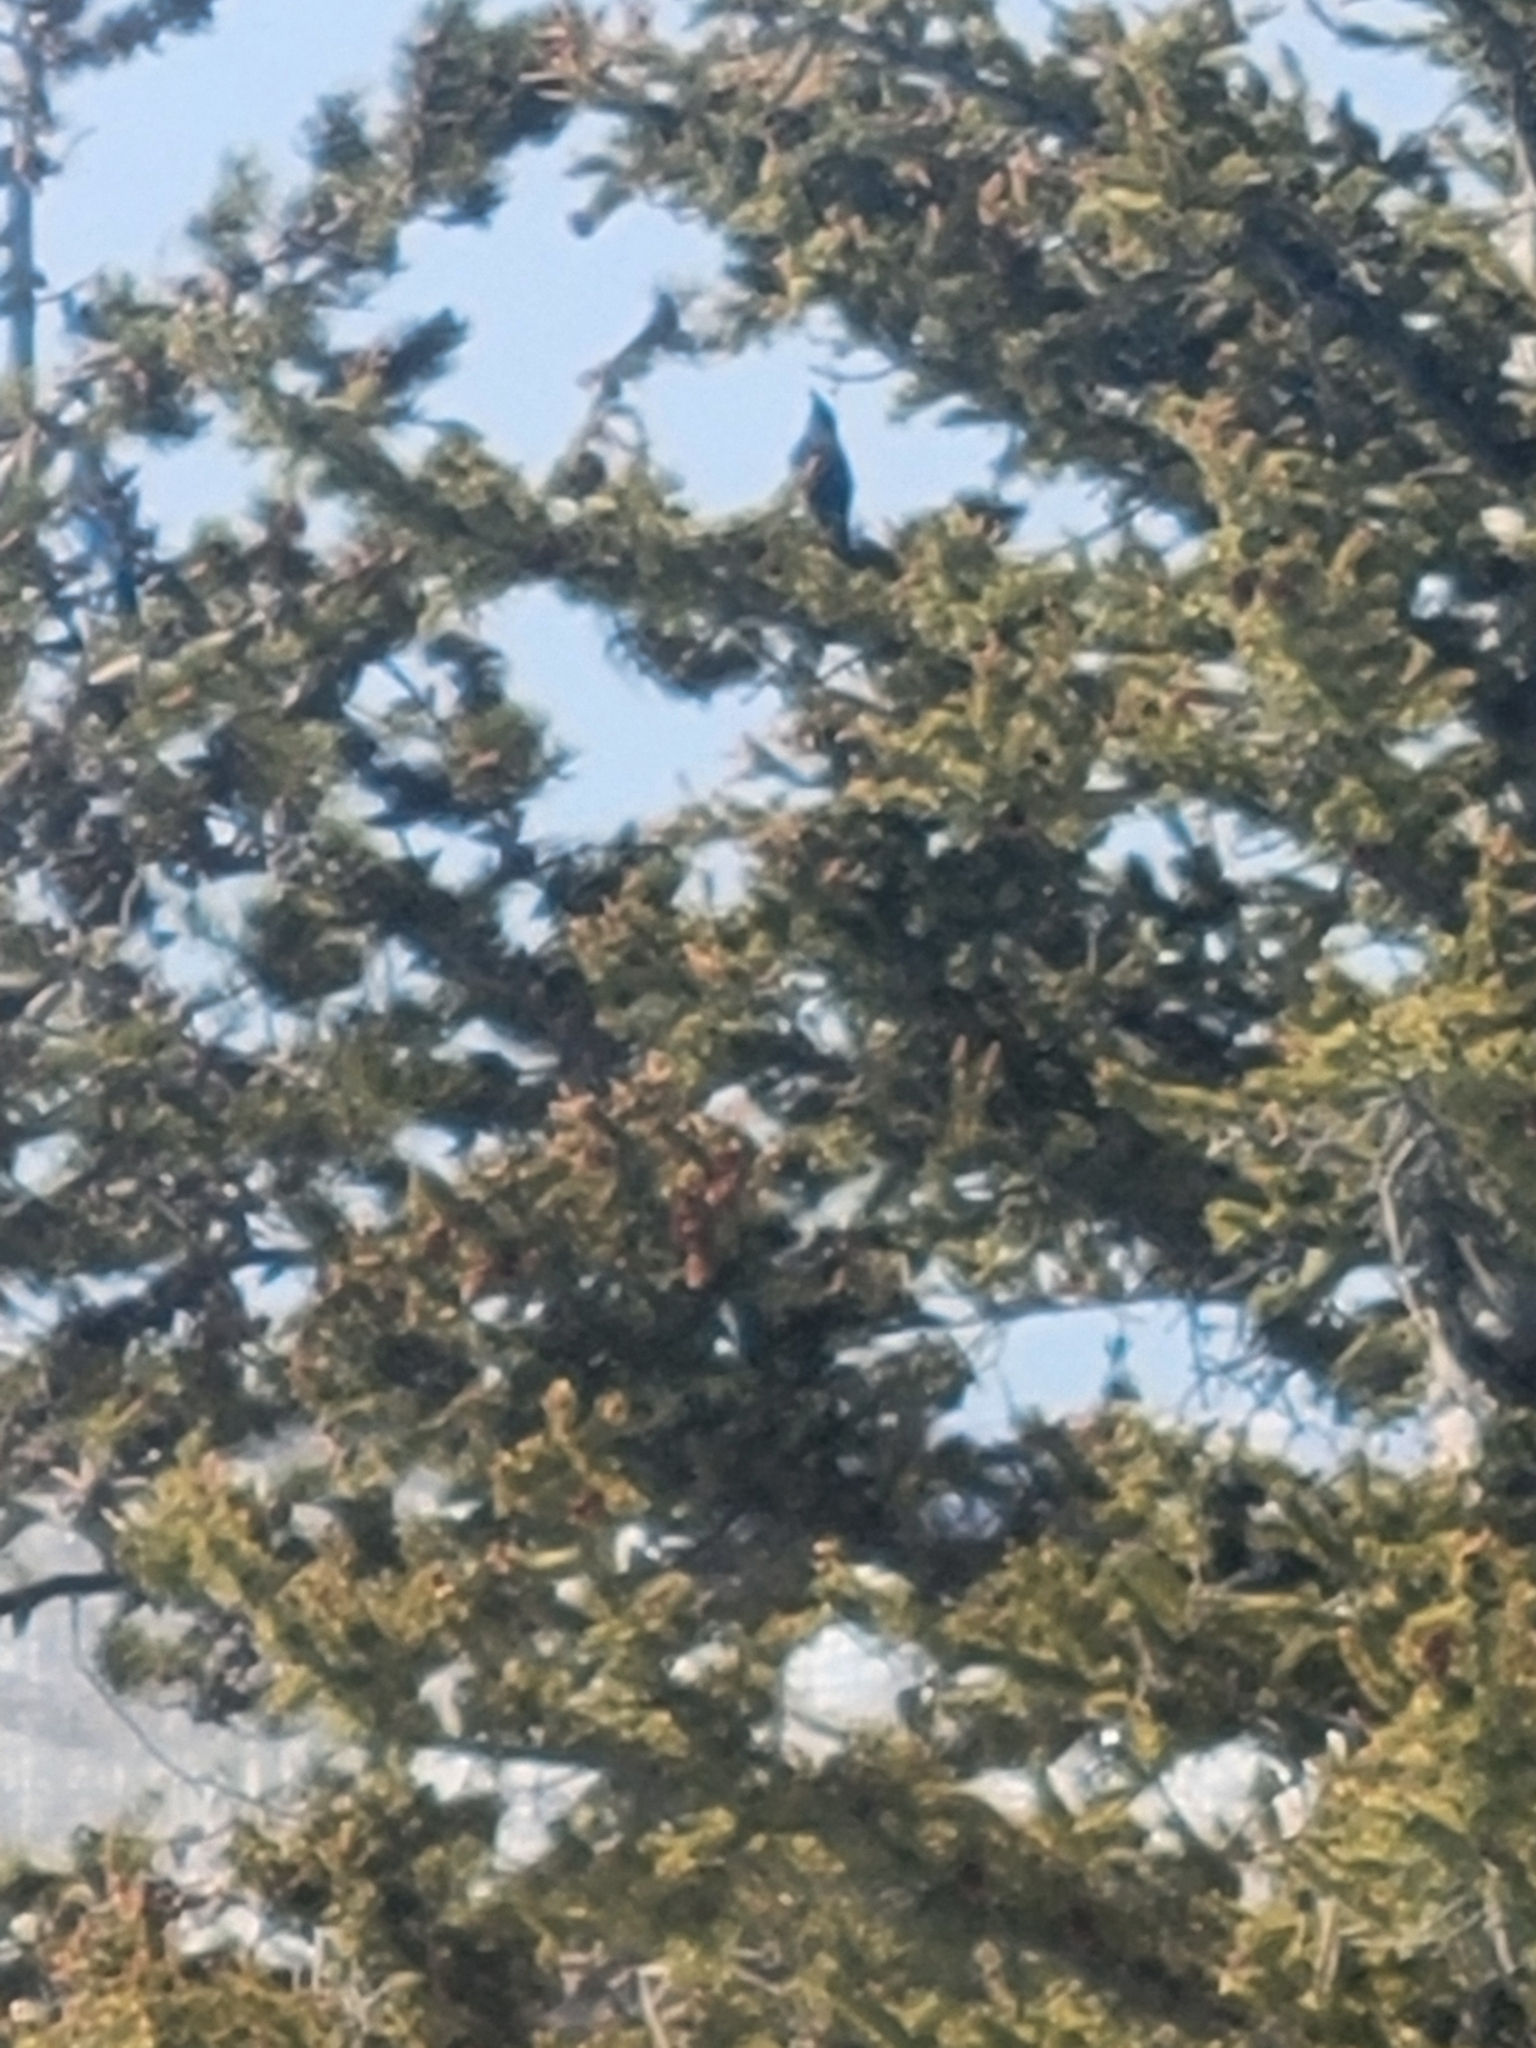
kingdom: Animalia
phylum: Chordata
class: Aves
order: Passeriformes
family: Corvidae
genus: Cyanocitta
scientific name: Cyanocitta stelleri
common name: Steller's jay
